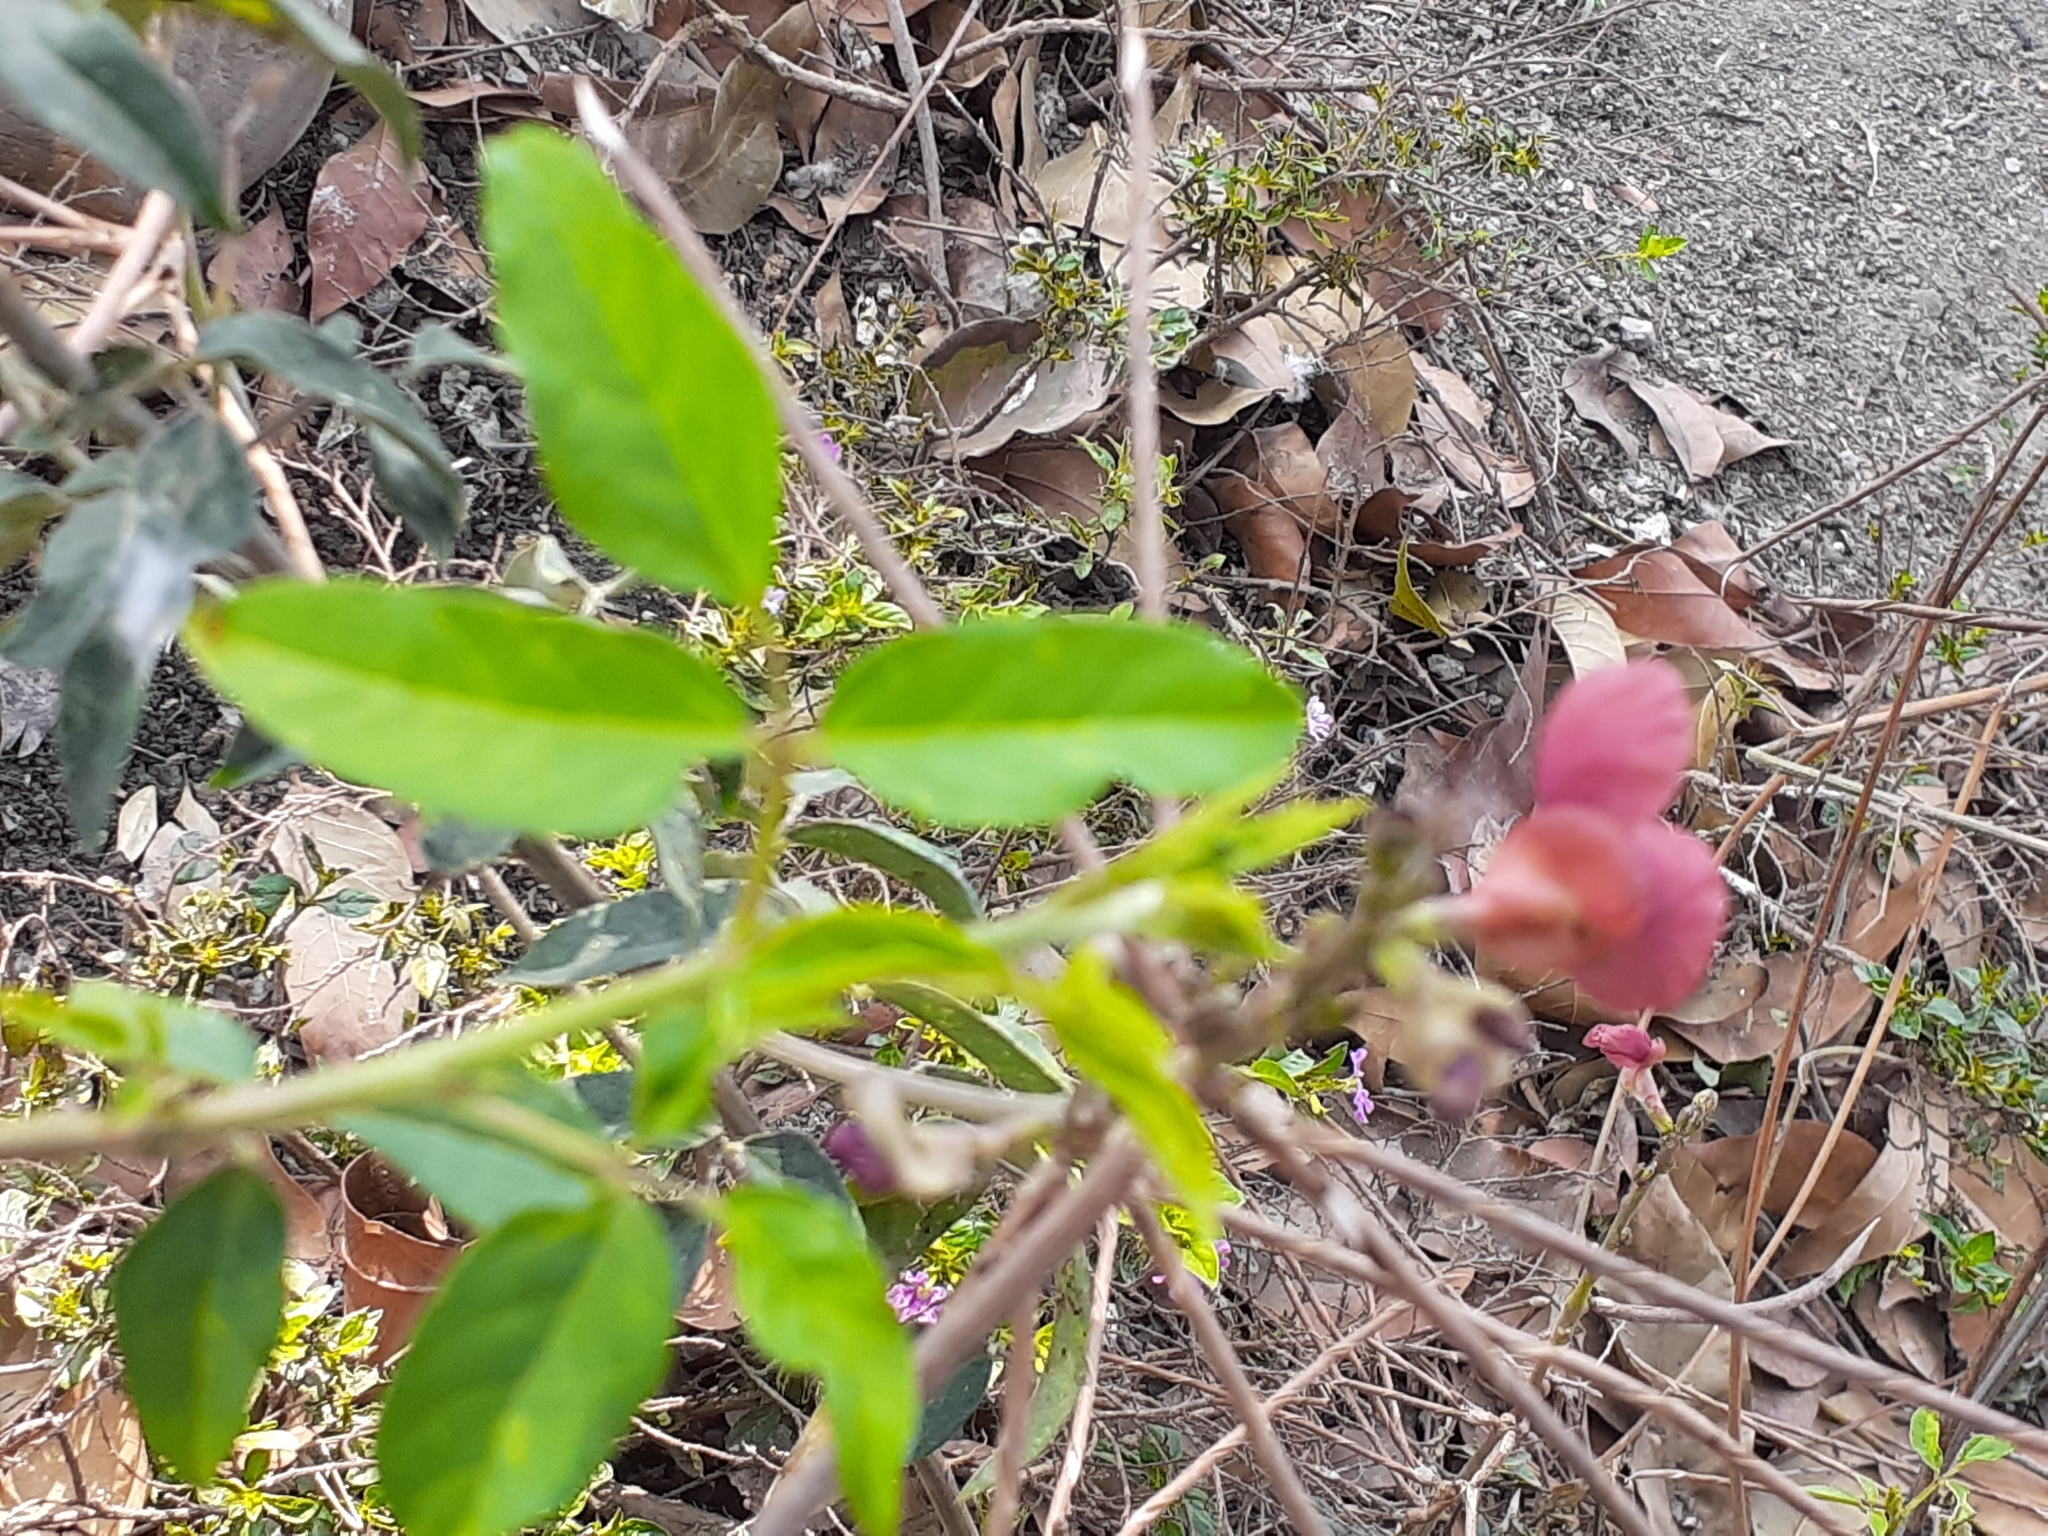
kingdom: Plantae
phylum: Tracheophyta
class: Magnoliopsida
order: Fabales
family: Fabaceae
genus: Macroptilium
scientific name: Macroptilium lathyroides
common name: Wild bushbean
